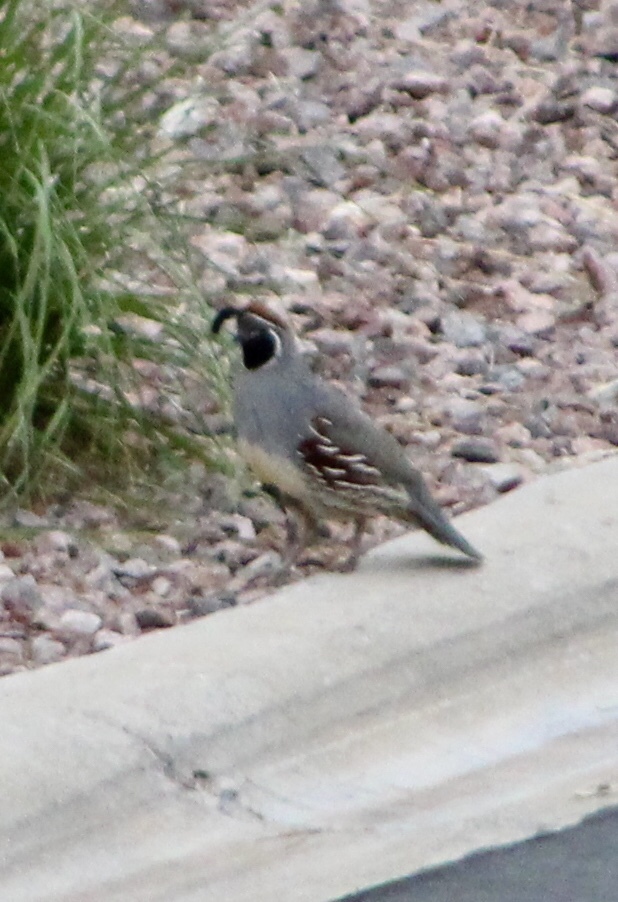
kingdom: Animalia
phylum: Chordata
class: Aves
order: Galliformes
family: Odontophoridae
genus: Callipepla
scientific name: Callipepla gambelii
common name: Gambel's quail
